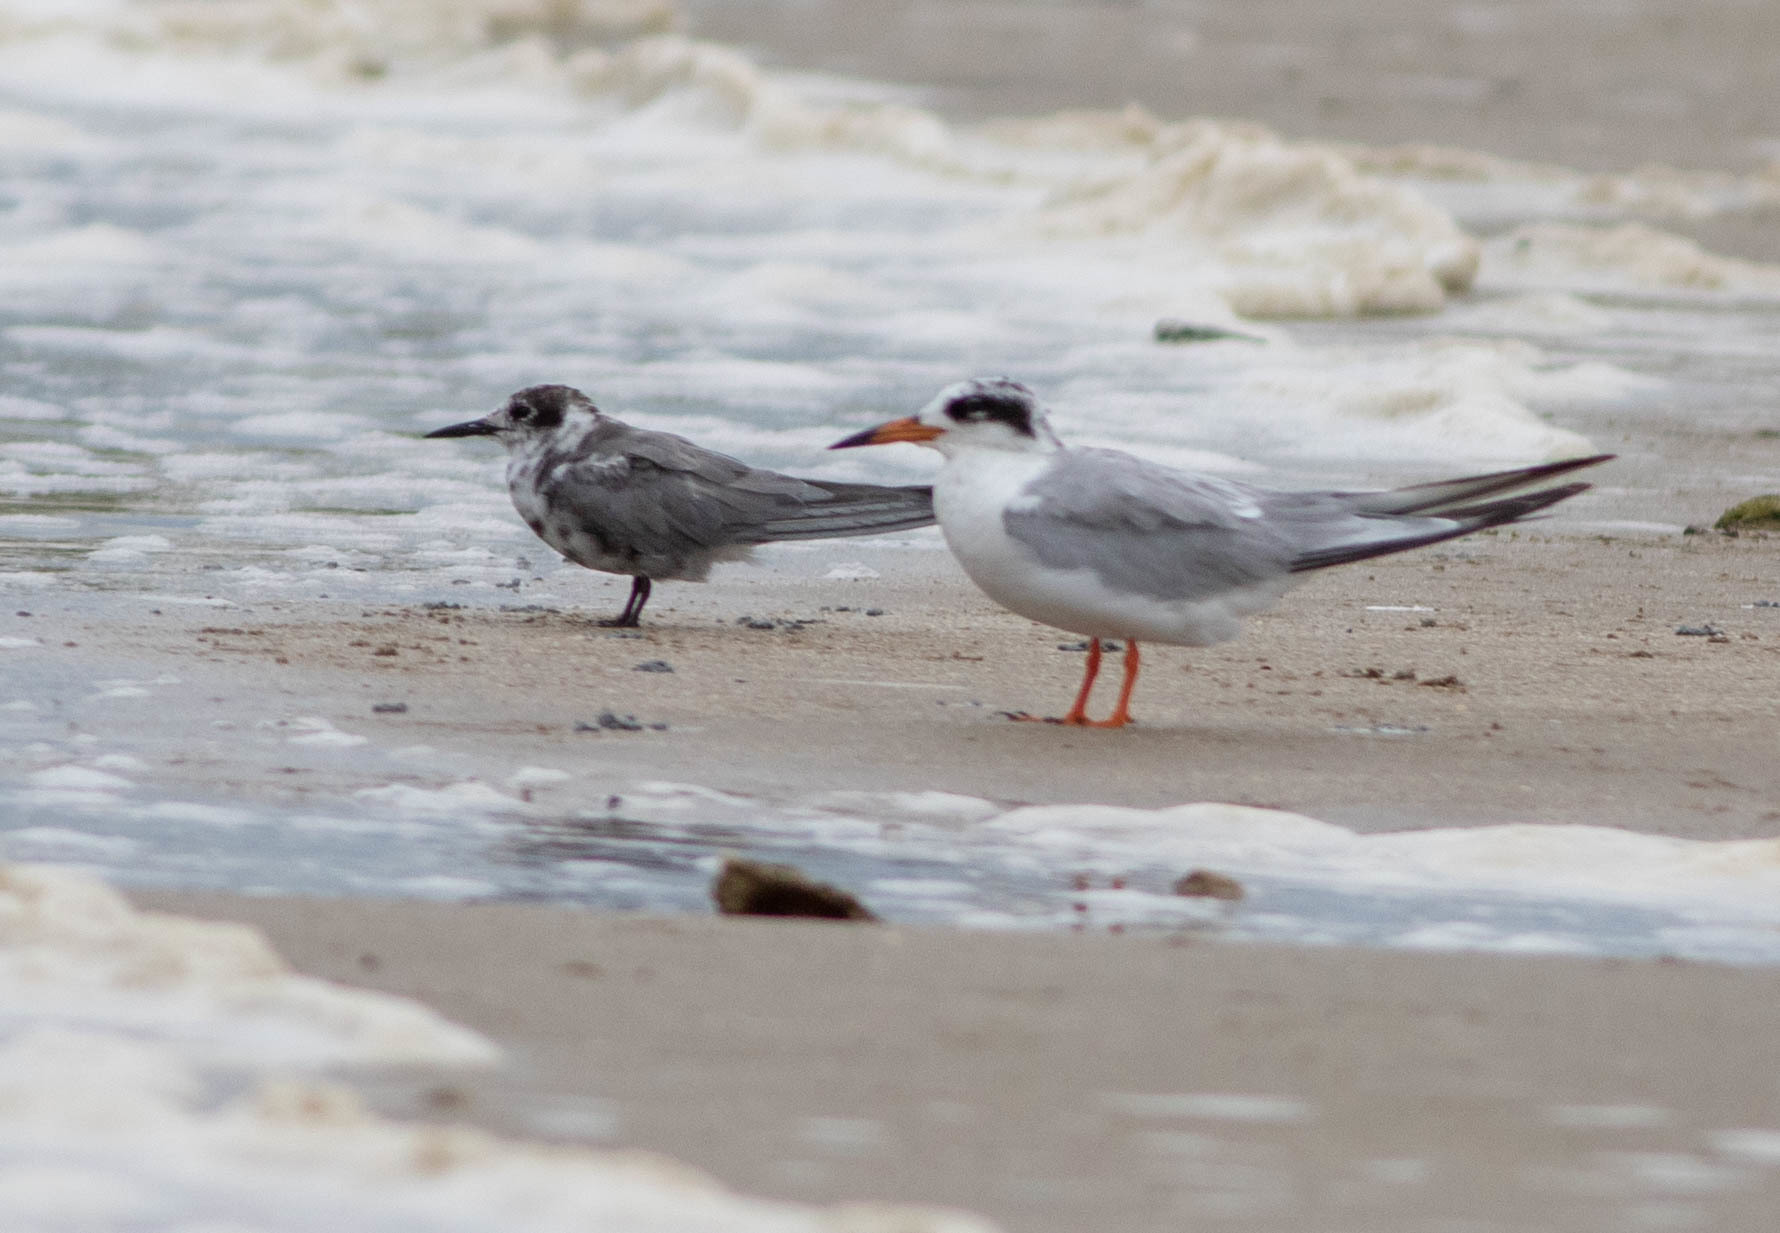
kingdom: Animalia
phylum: Chordata
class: Aves
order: Charadriiformes
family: Laridae
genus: Chlidonias
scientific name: Chlidonias niger
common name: Black tern
